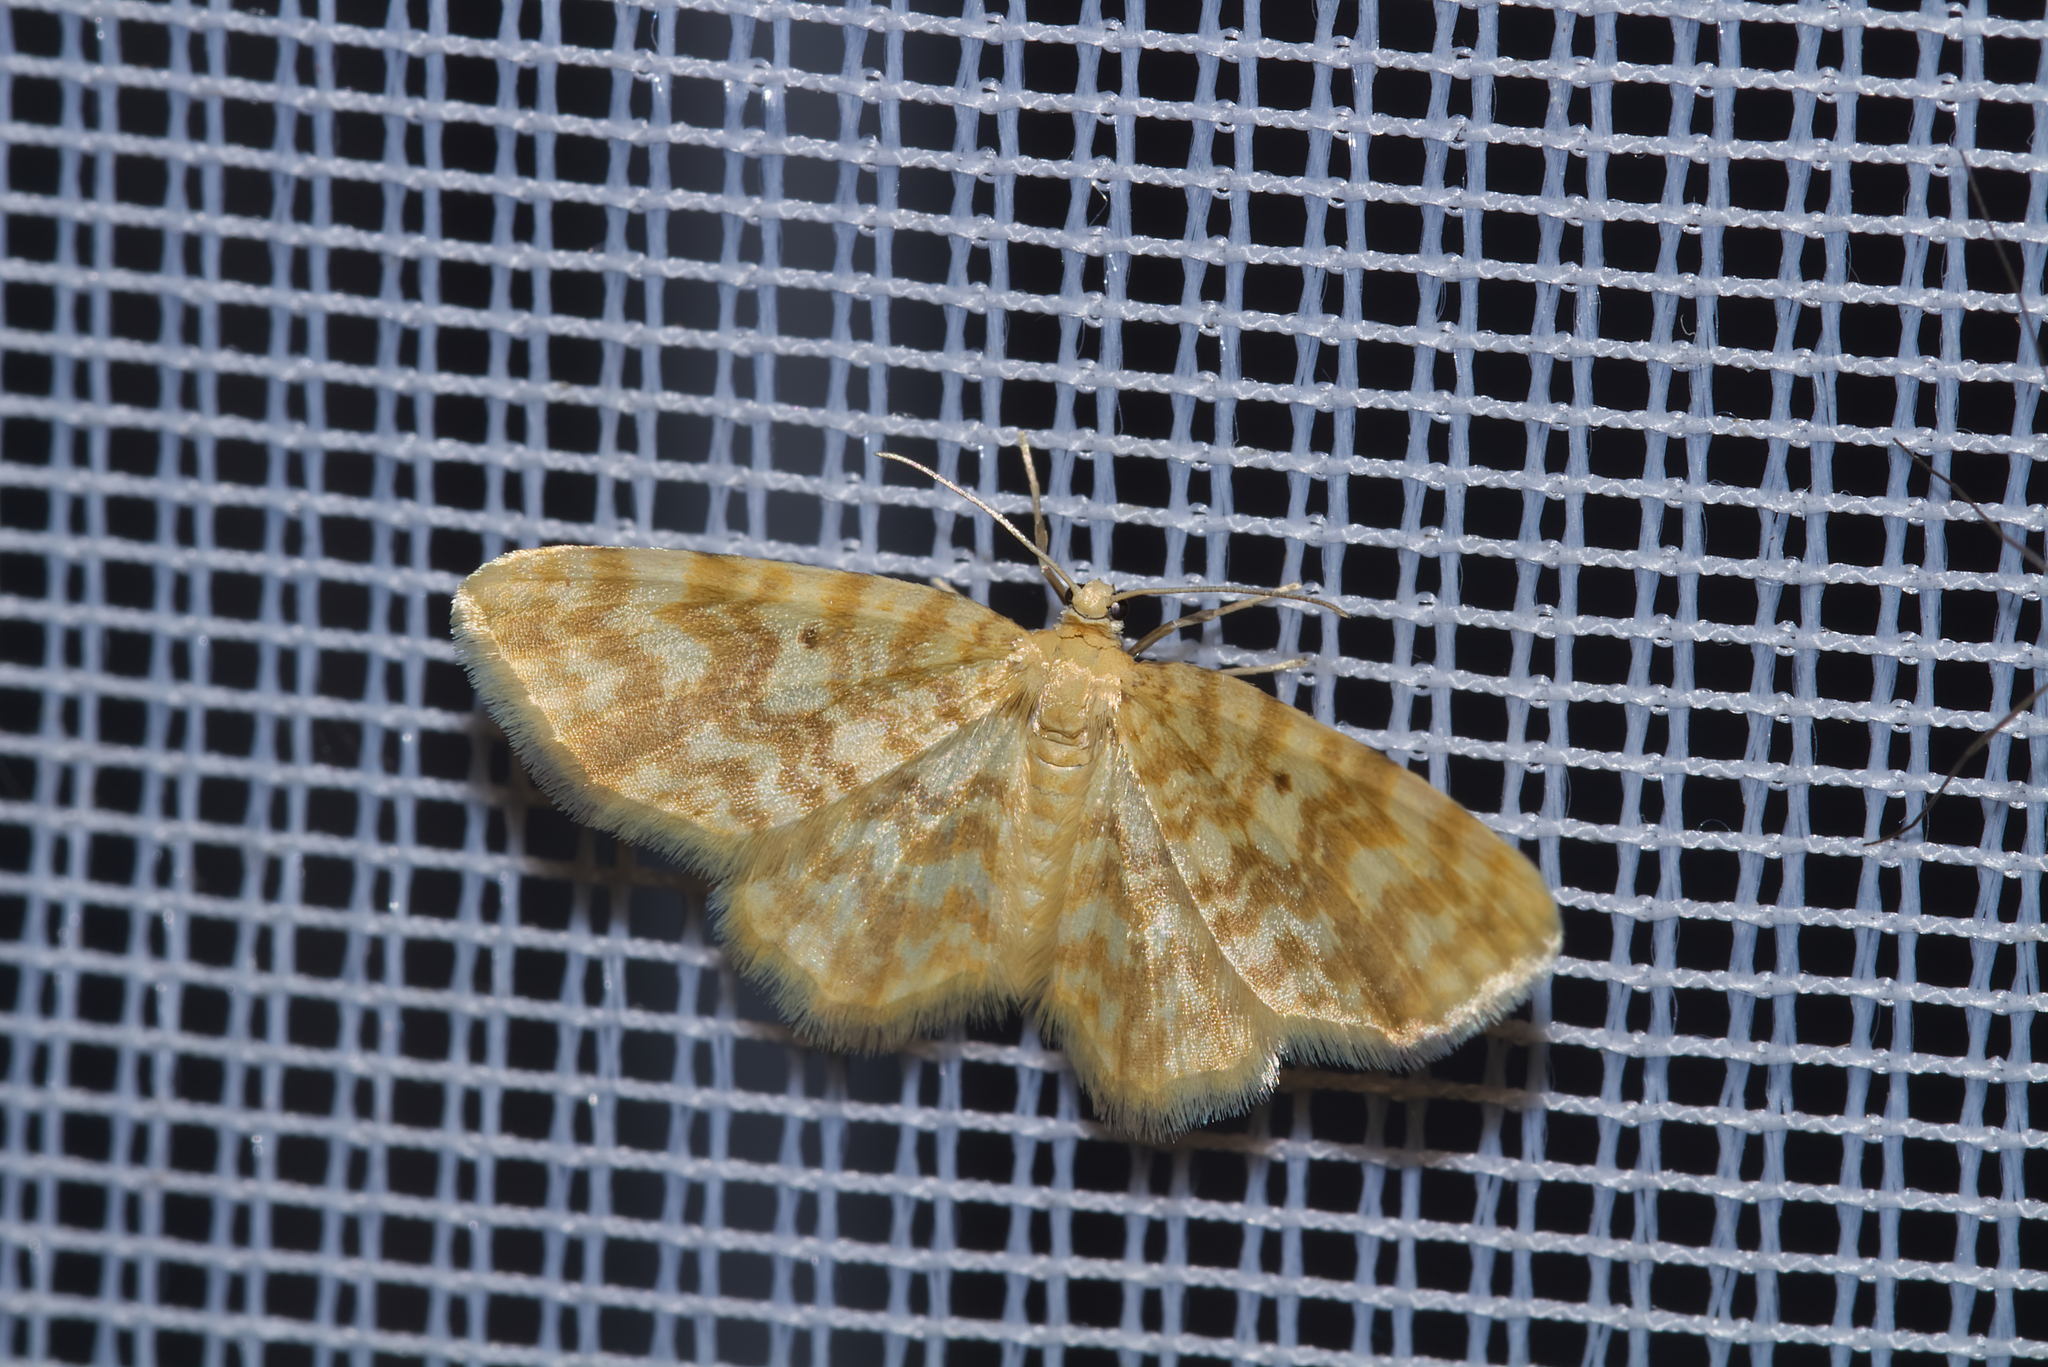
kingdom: Animalia
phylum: Arthropoda
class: Insecta
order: Lepidoptera
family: Geometridae
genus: Hydrelia
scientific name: Hydrelia flammeolaria
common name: Small yellow wave
